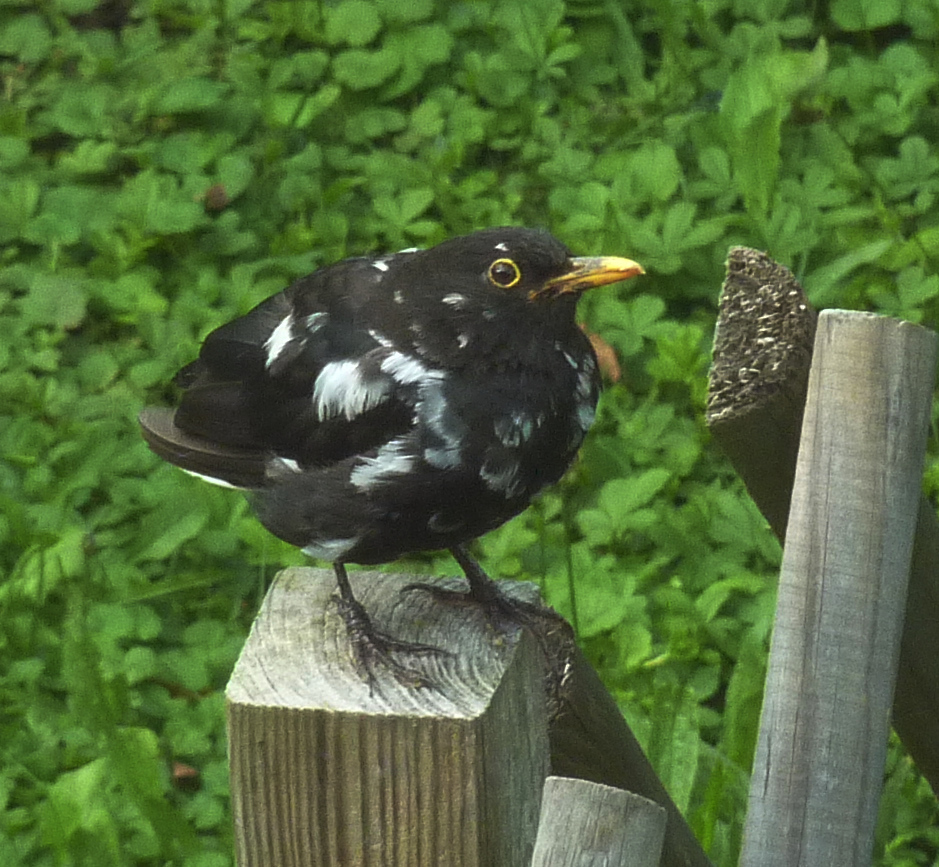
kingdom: Animalia
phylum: Chordata
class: Aves
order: Passeriformes
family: Turdidae
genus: Turdus
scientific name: Turdus merula
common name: Common blackbird
